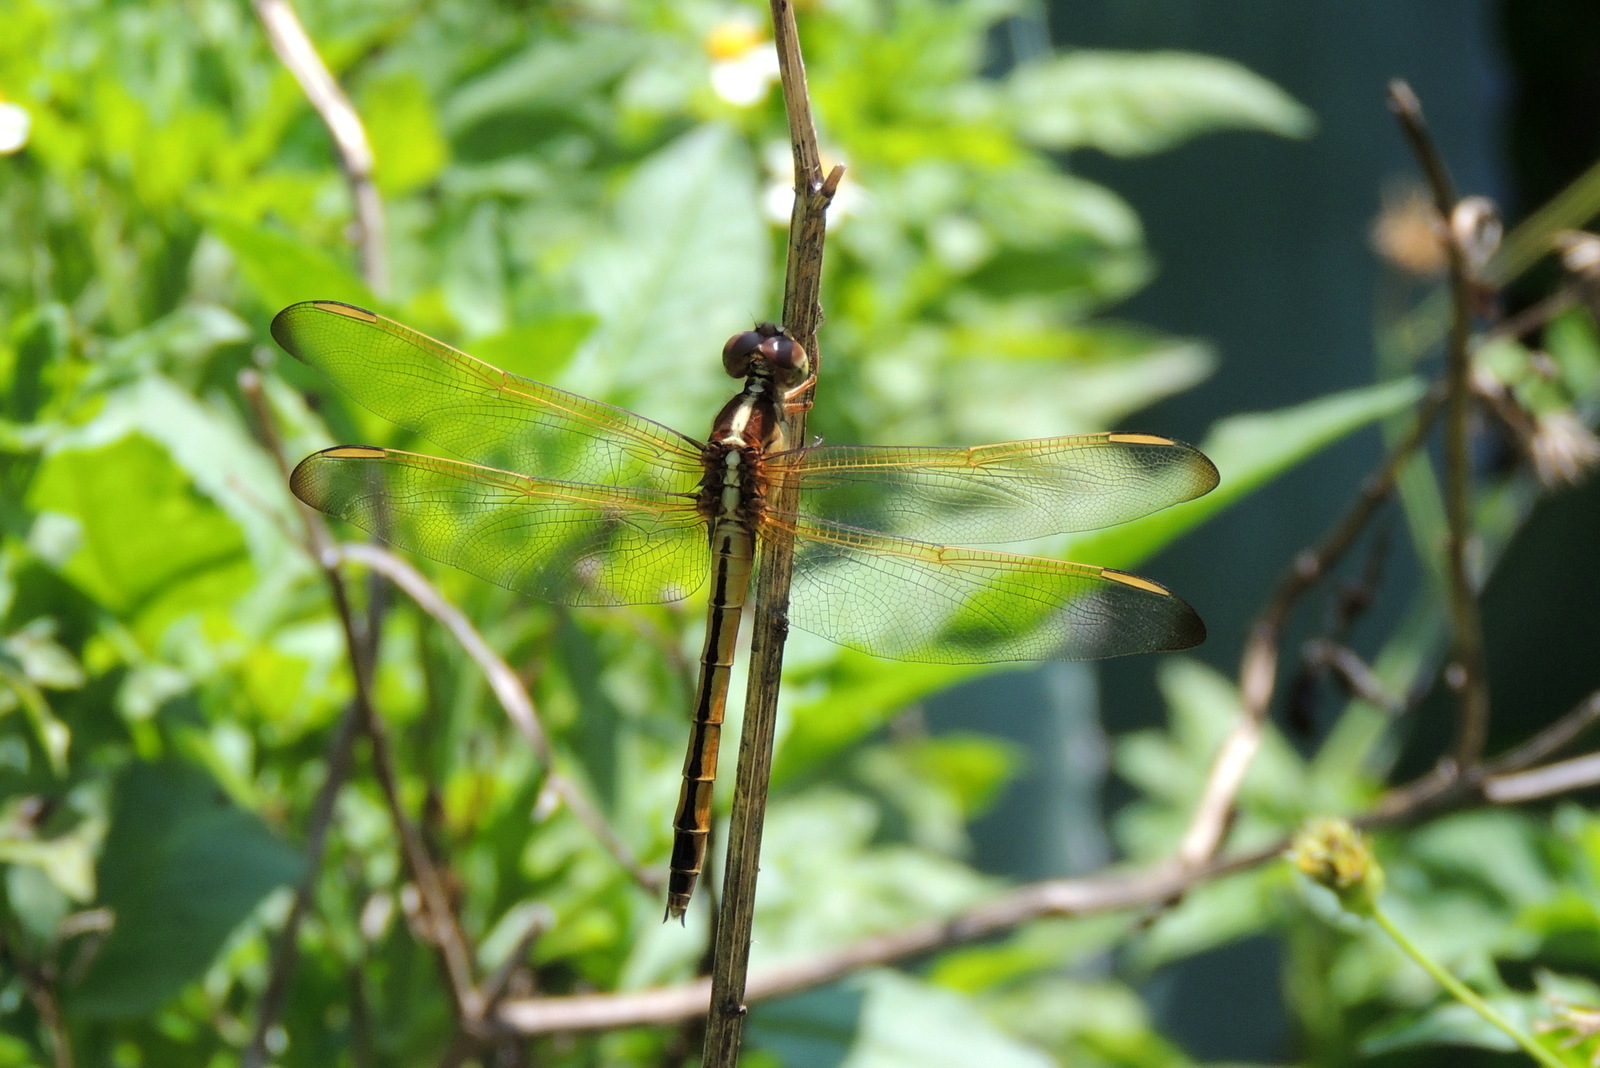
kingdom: Animalia
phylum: Arthropoda
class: Insecta
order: Odonata
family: Libellulidae
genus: Libellula
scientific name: Libellula needhami
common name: Needham's skimmer
